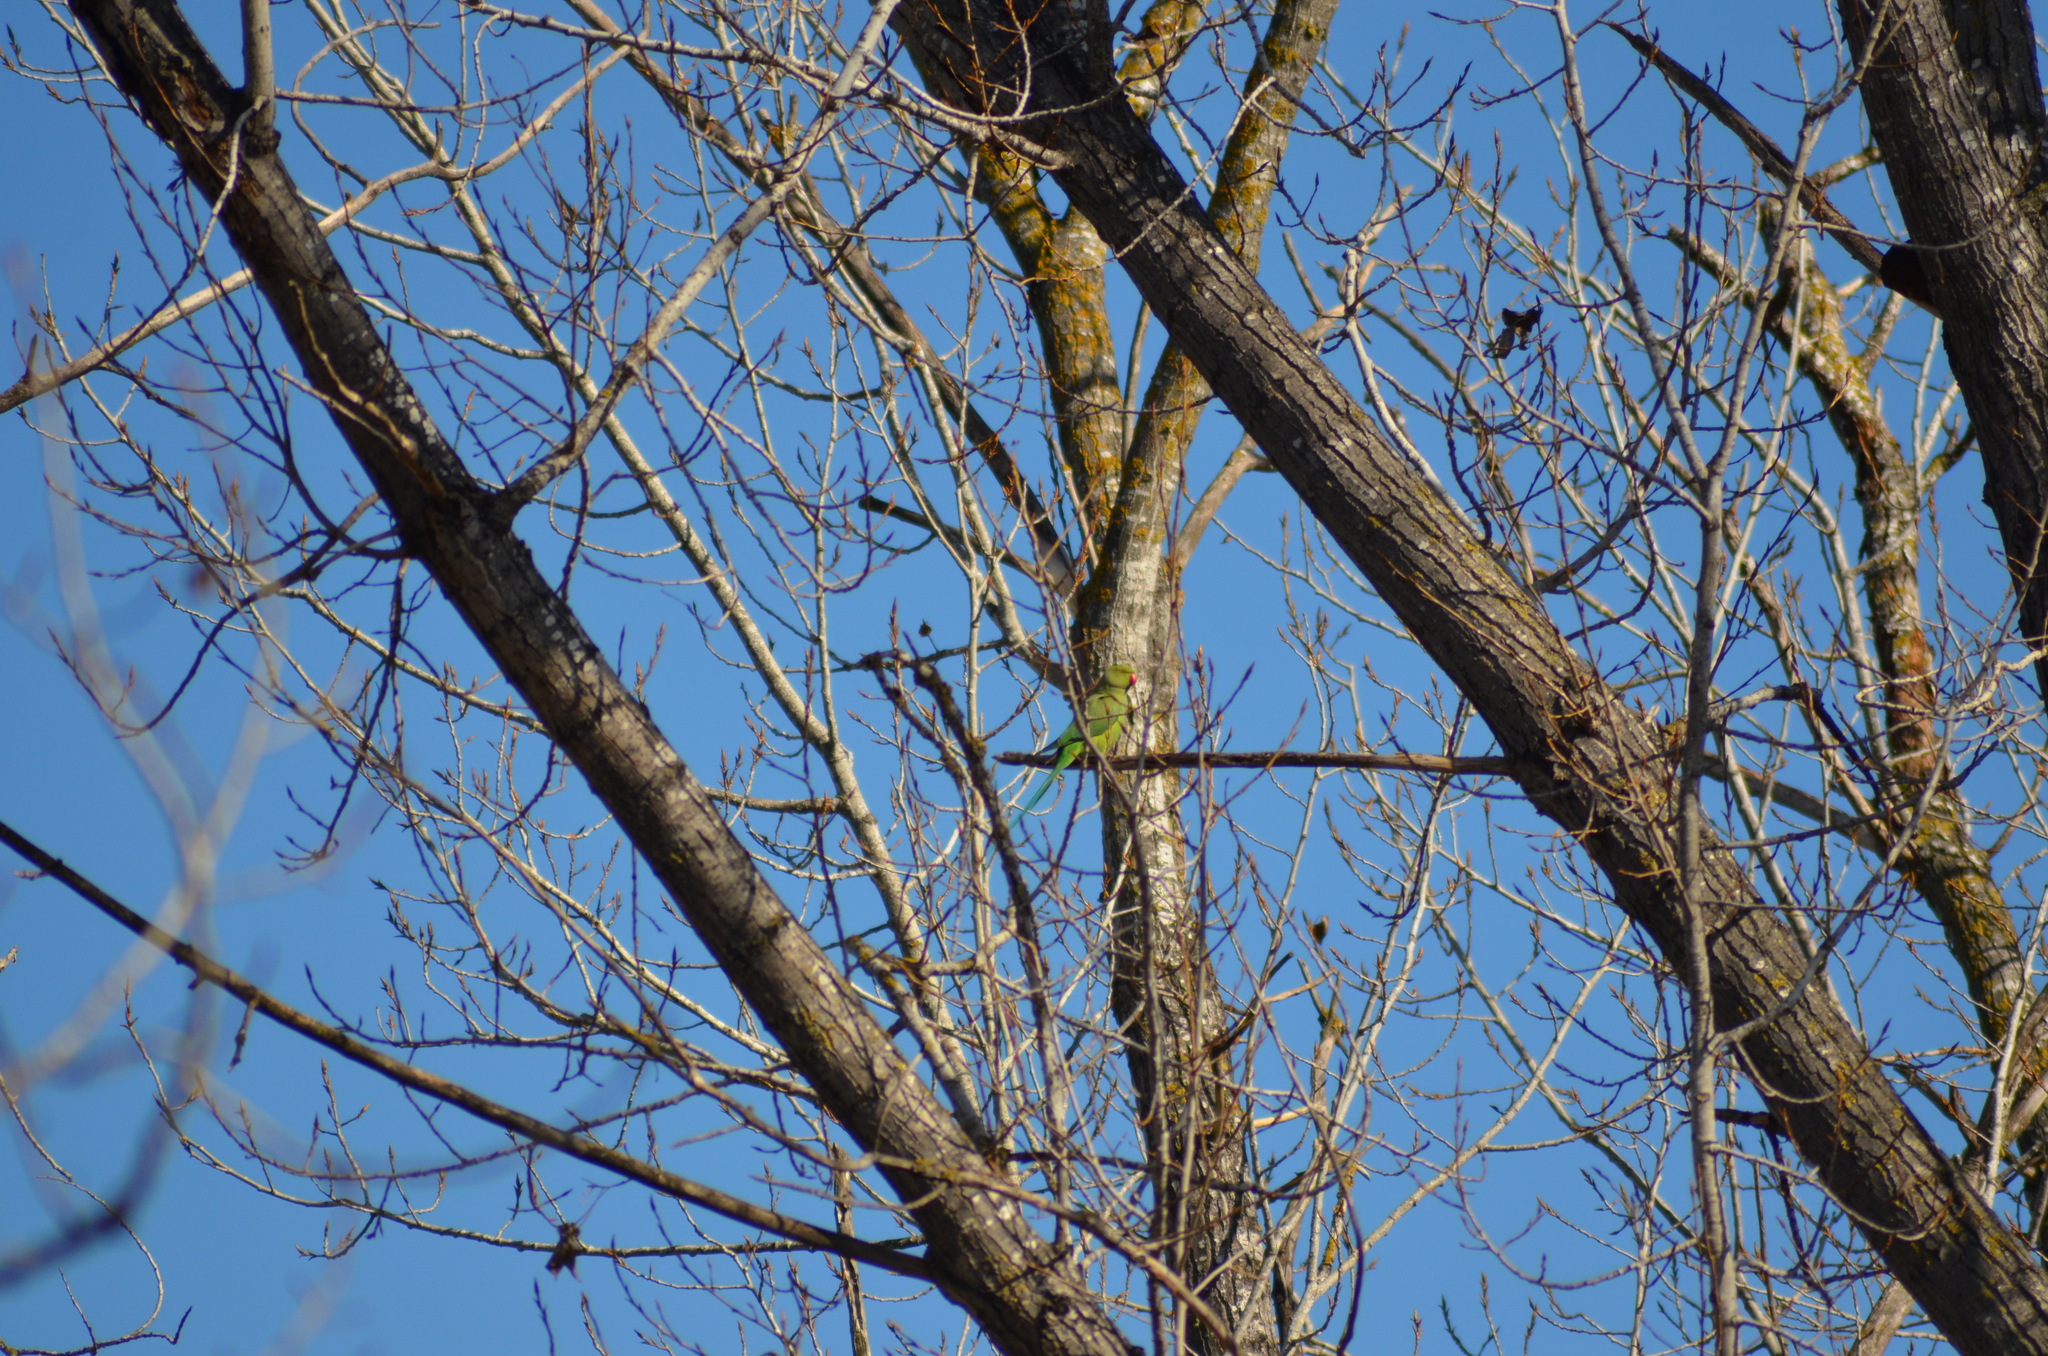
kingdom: Animalia
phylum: Chordata
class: Aves
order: Psittaciformes
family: Psittacidae
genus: Psittacula
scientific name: Psittacula krameri
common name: Rose-ringed parakeet
